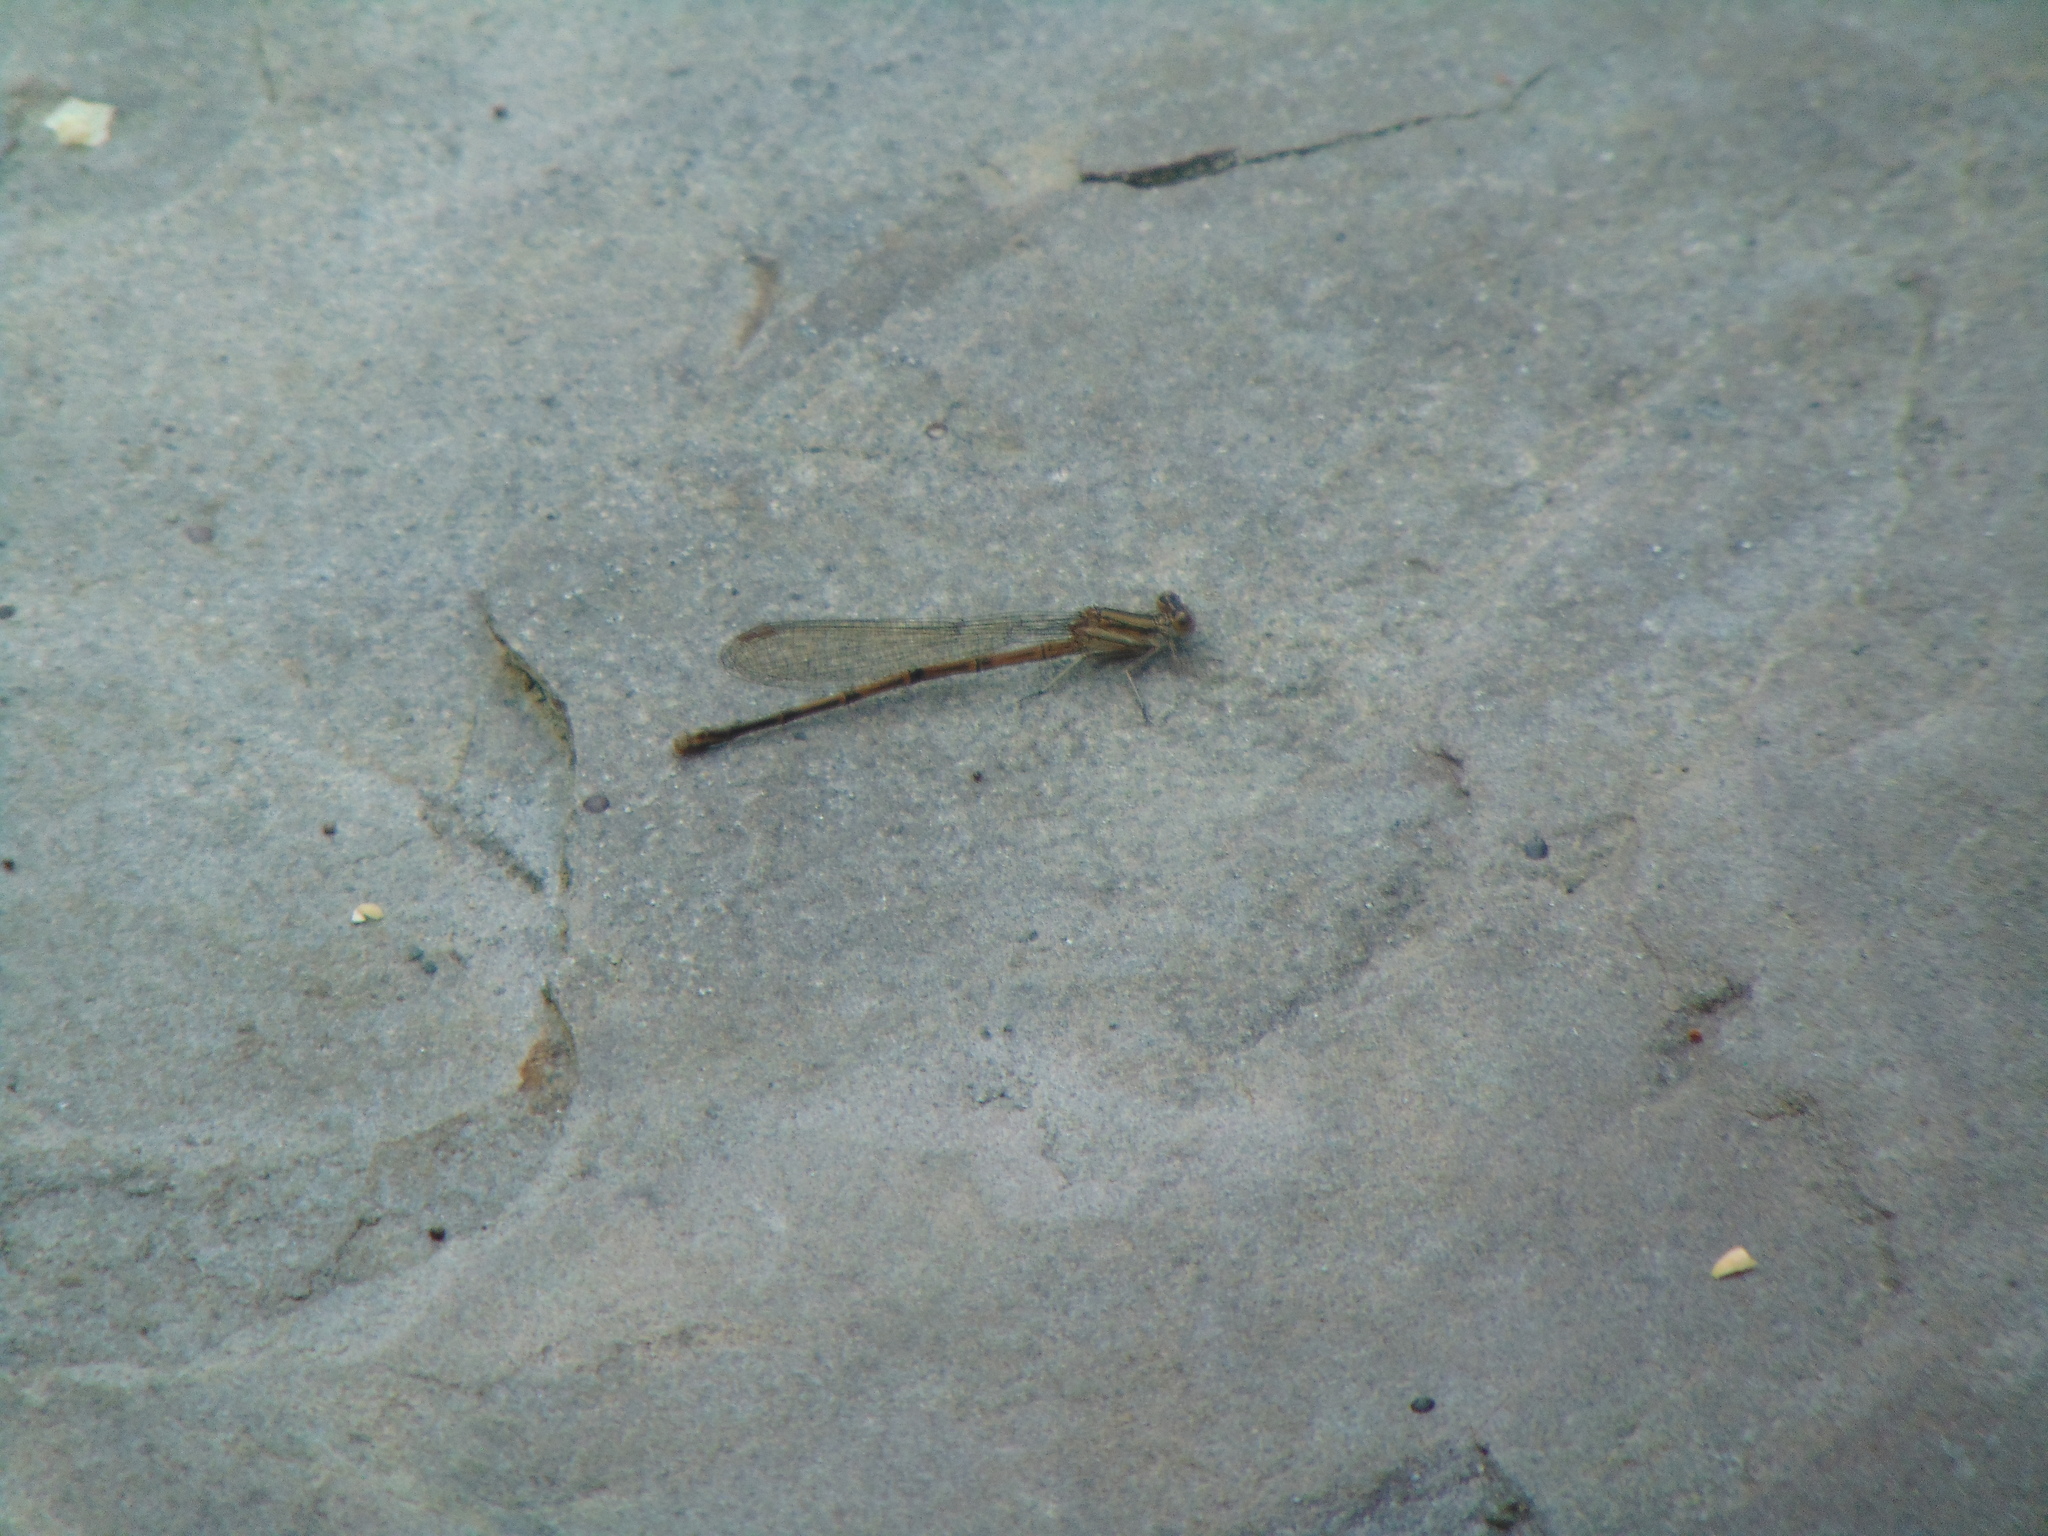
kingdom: Animalia
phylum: Arthropoda
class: Insecta
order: Odonata
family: Coenagrionidae
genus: Argia
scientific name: Argia fumipennis
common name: Variable dancer
